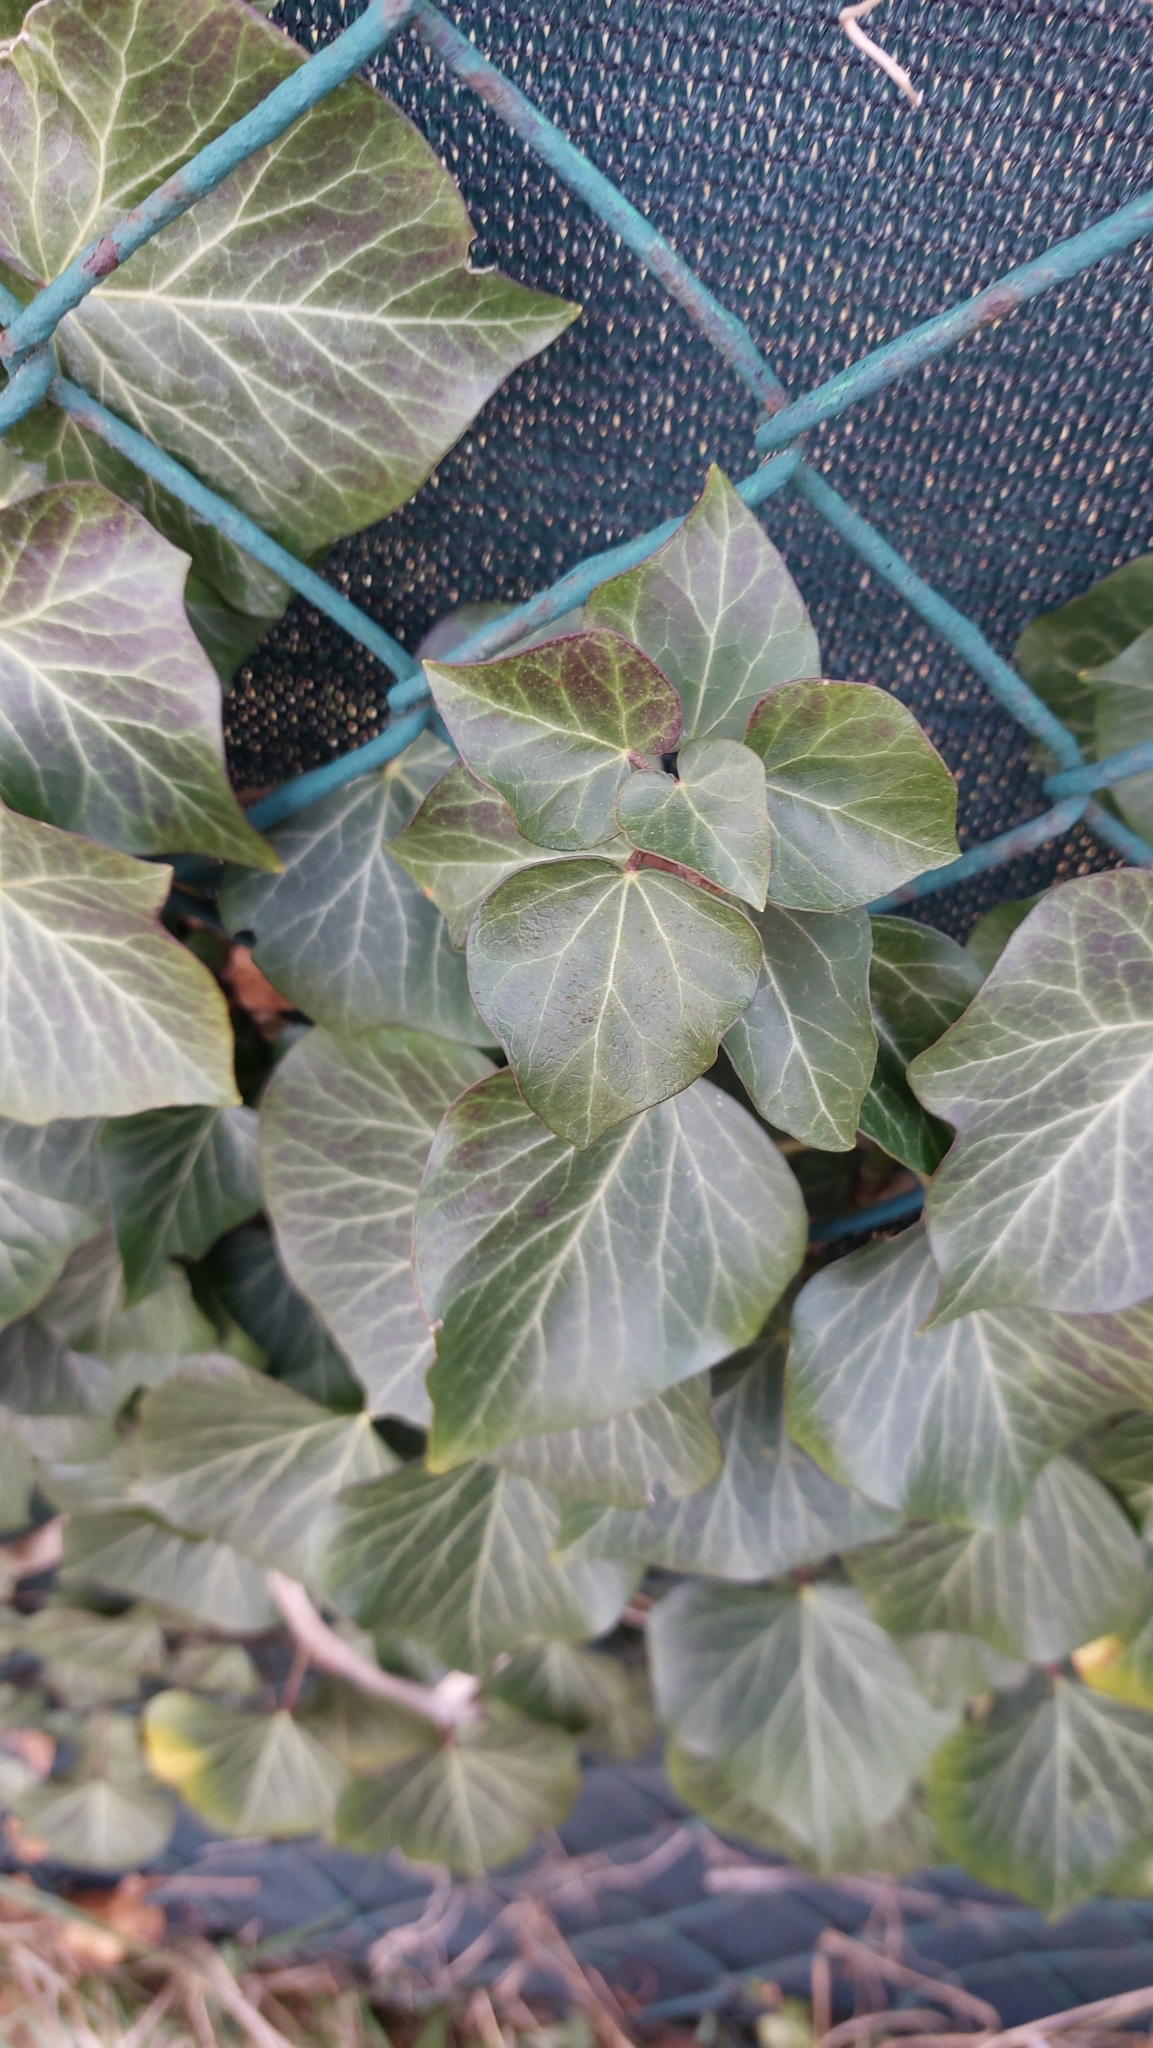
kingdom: Plantae
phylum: Tracheophyta
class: Magnoliopsida
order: Apiales
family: Araliaceae
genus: Hedera
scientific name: Hedera helix
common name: Ivy
